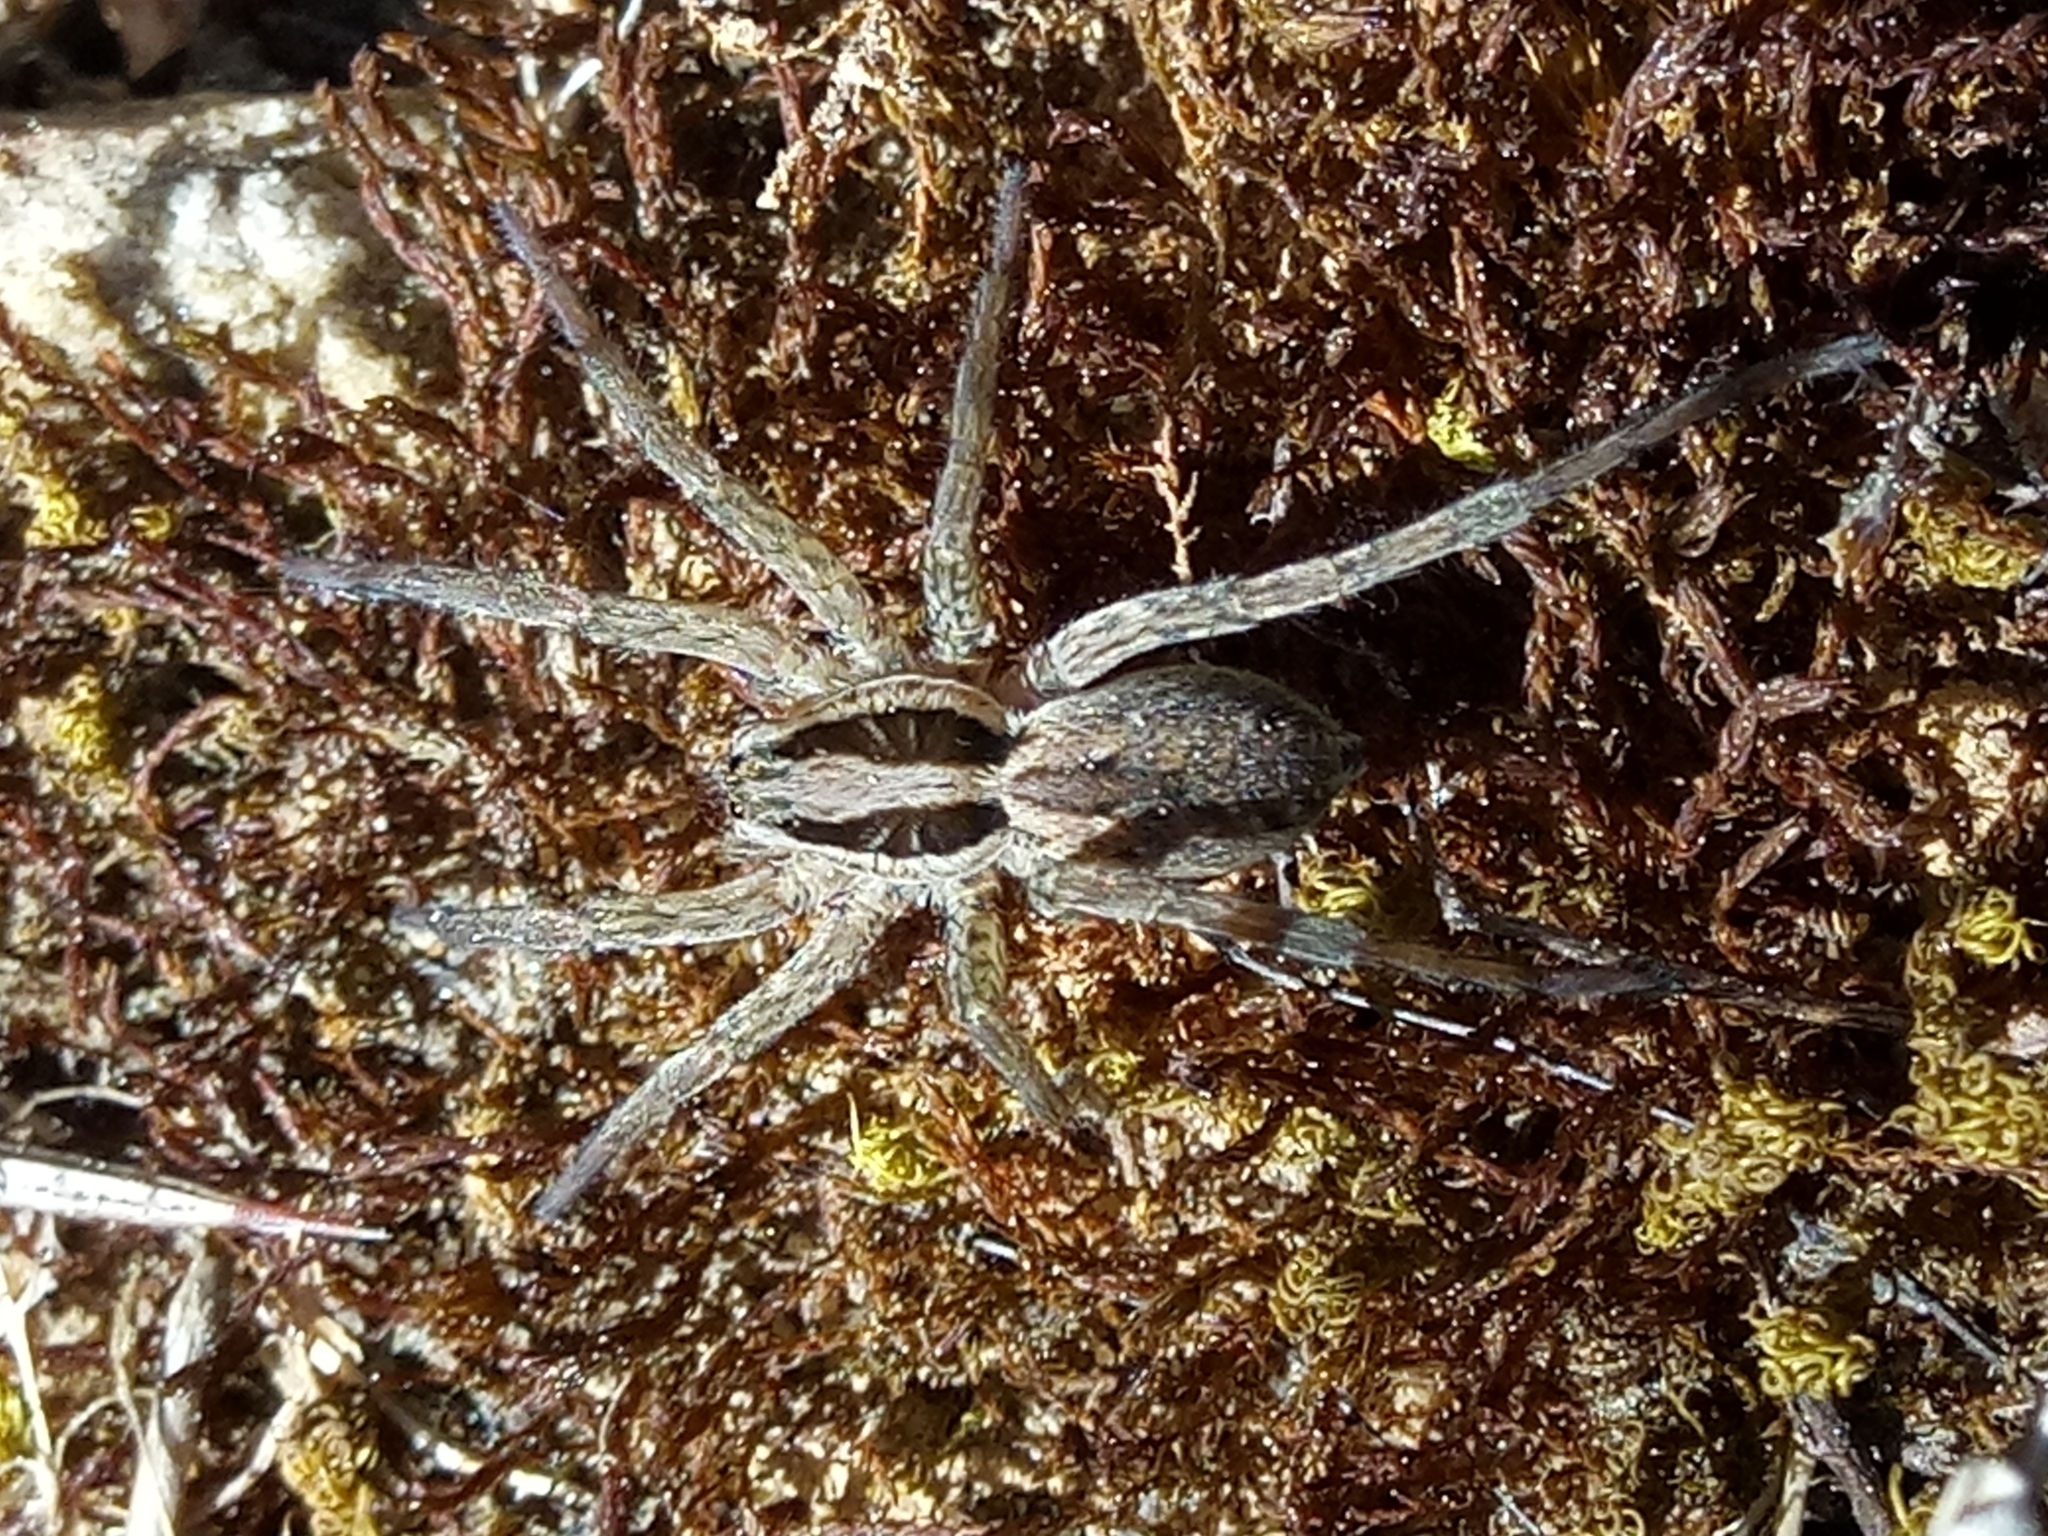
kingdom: Animalia
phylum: Arthropoda
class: Arachnida
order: Araneae
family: Lycosidae
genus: Hogna
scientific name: Hogna radiata
